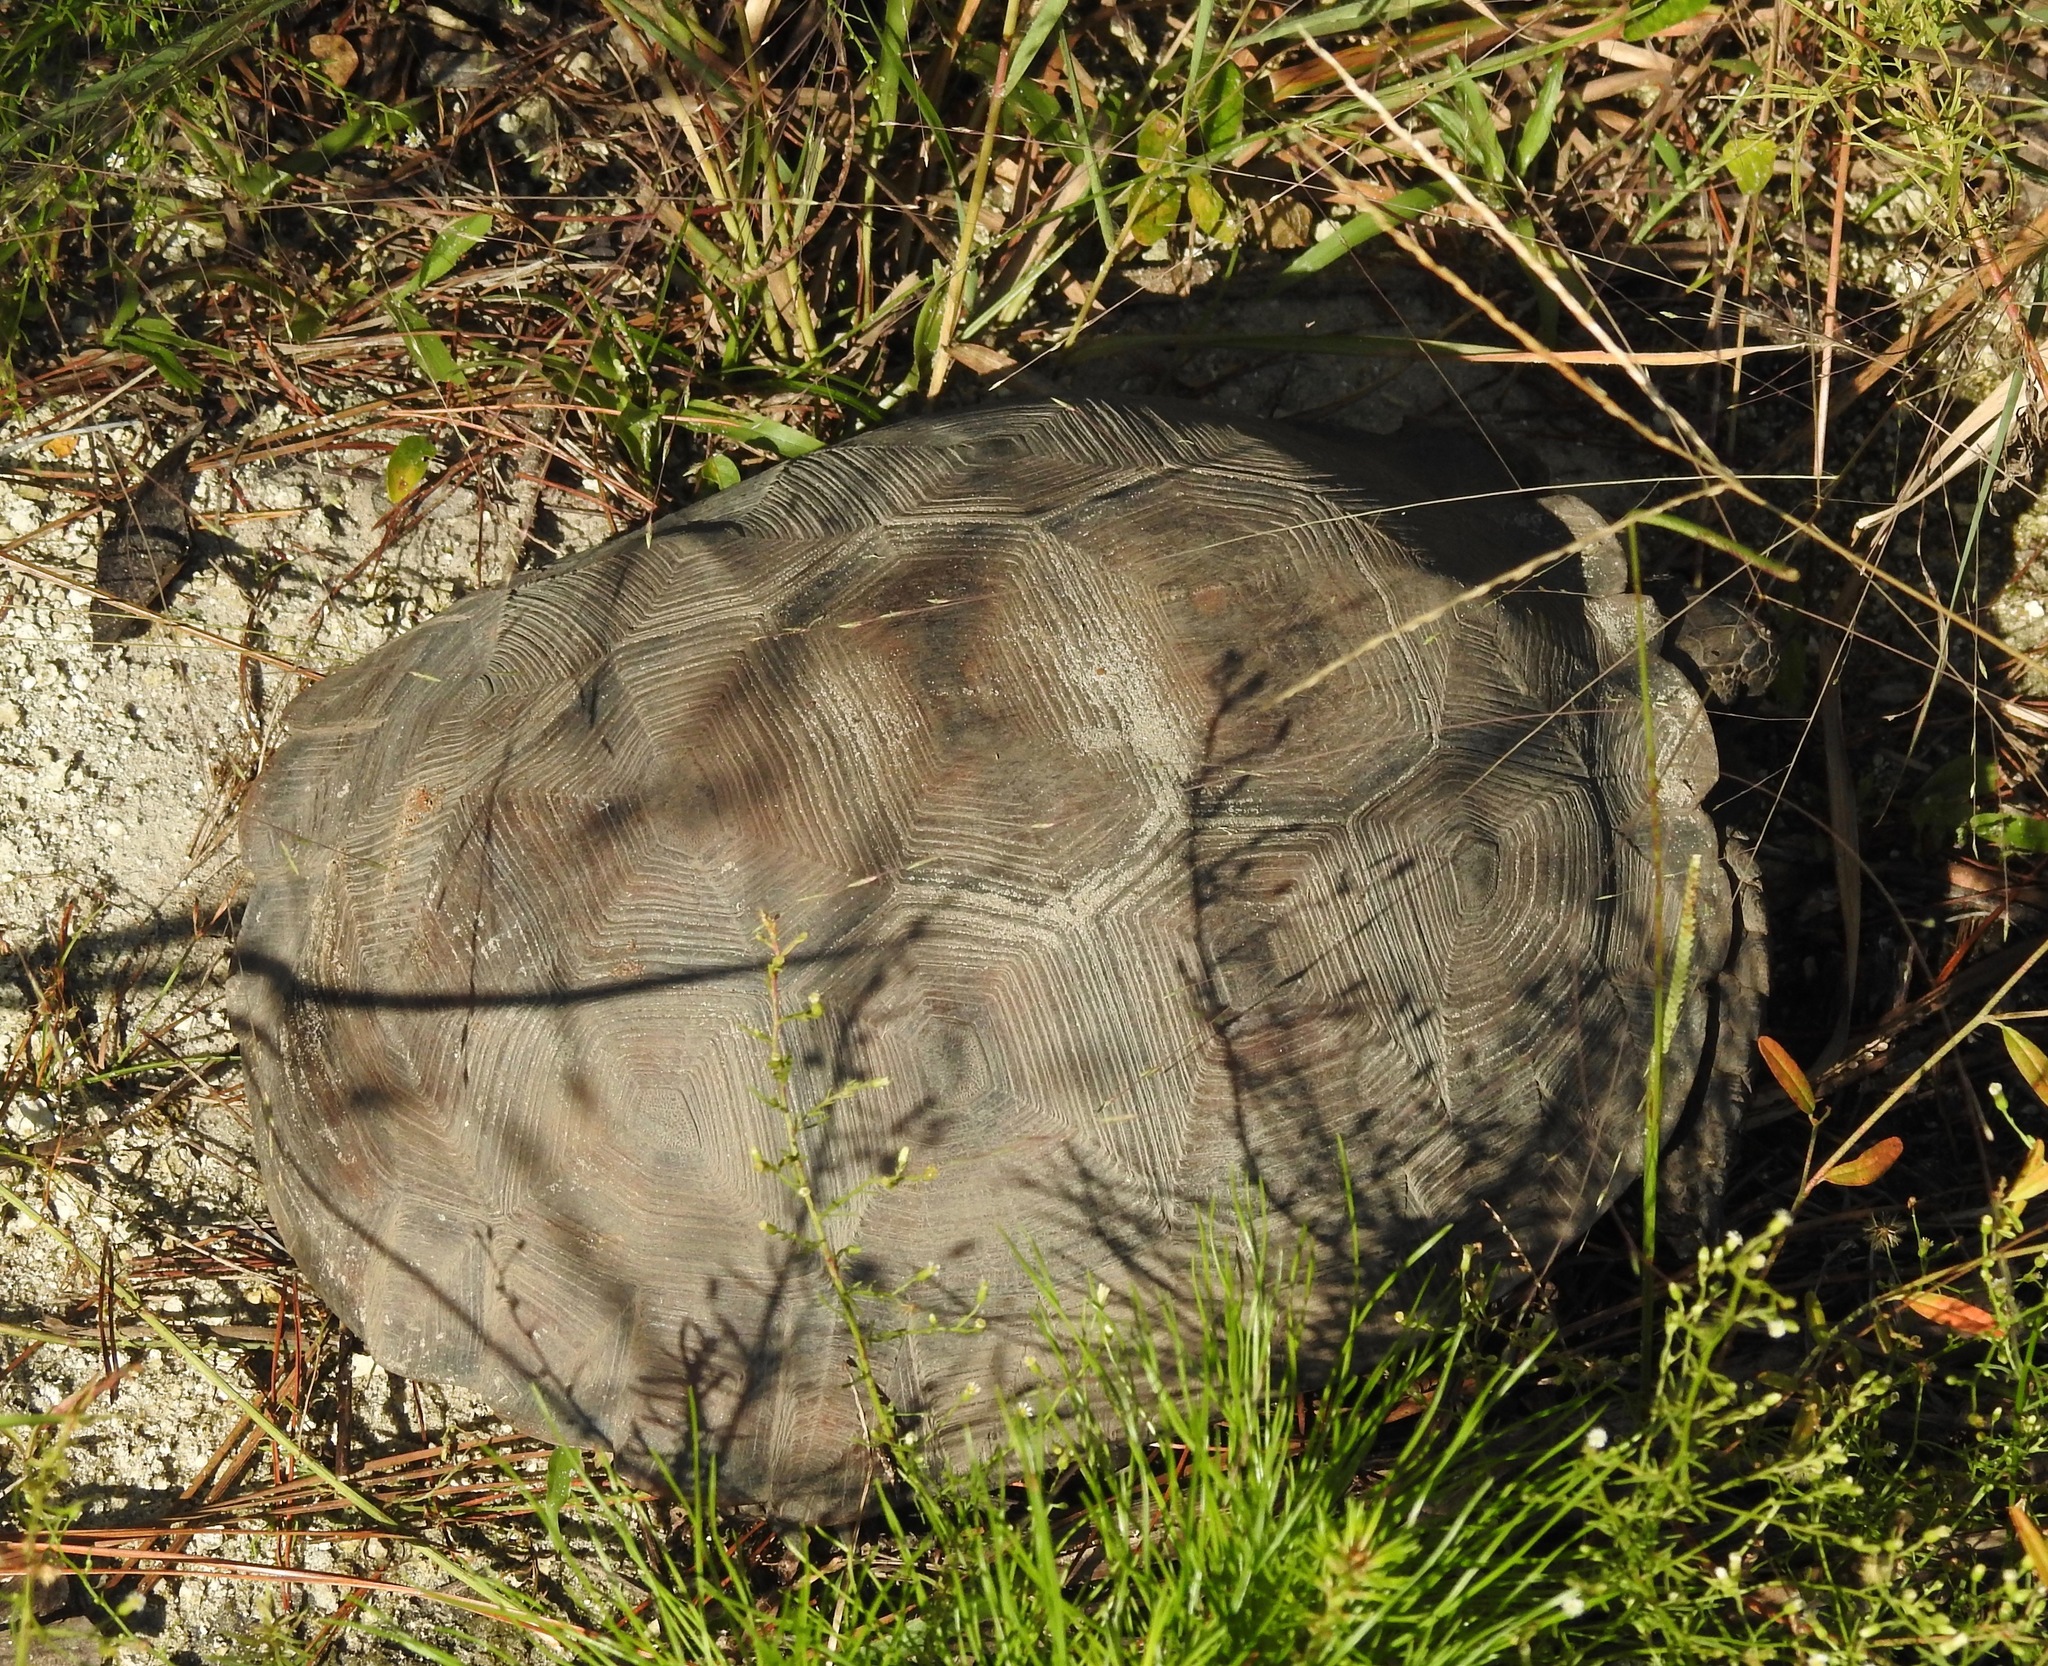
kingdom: Animalia
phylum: Chordata
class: Testudines
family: Testudinidae
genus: Gopherus
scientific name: Gopherus polyphemus
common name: Florida gopher tortoise
